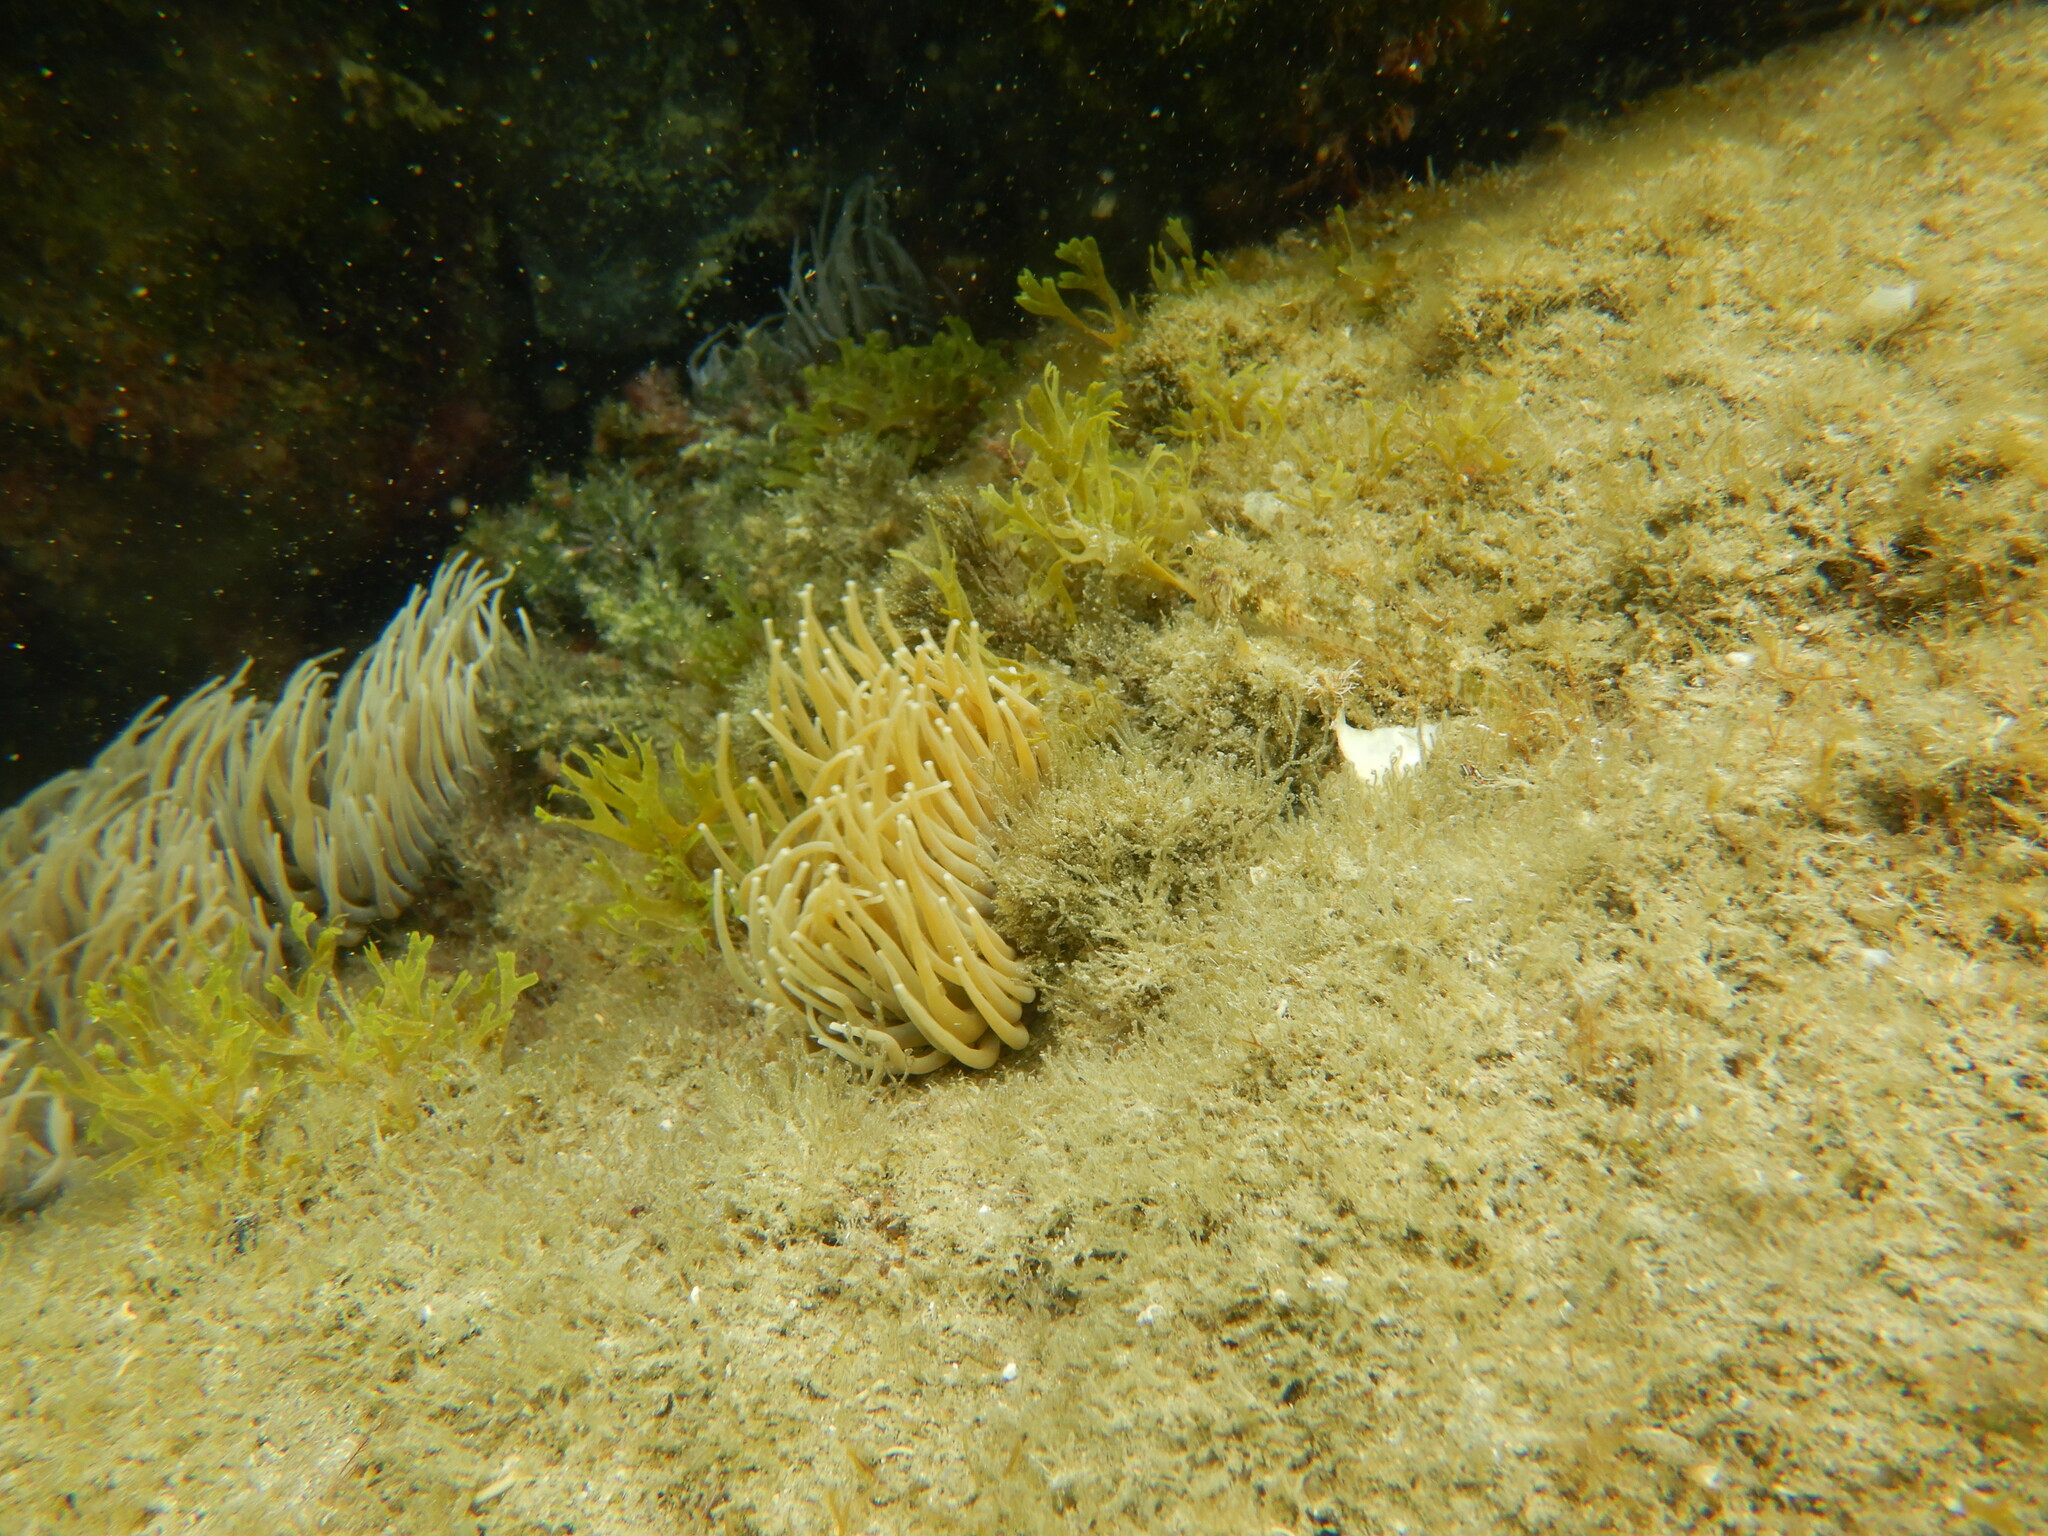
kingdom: Animalia
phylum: Cnidaria
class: Anthozoa
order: Actiniaria
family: Actiniidae
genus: Anemonia
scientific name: Anemonia viridis
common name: Snakelocks anemone
